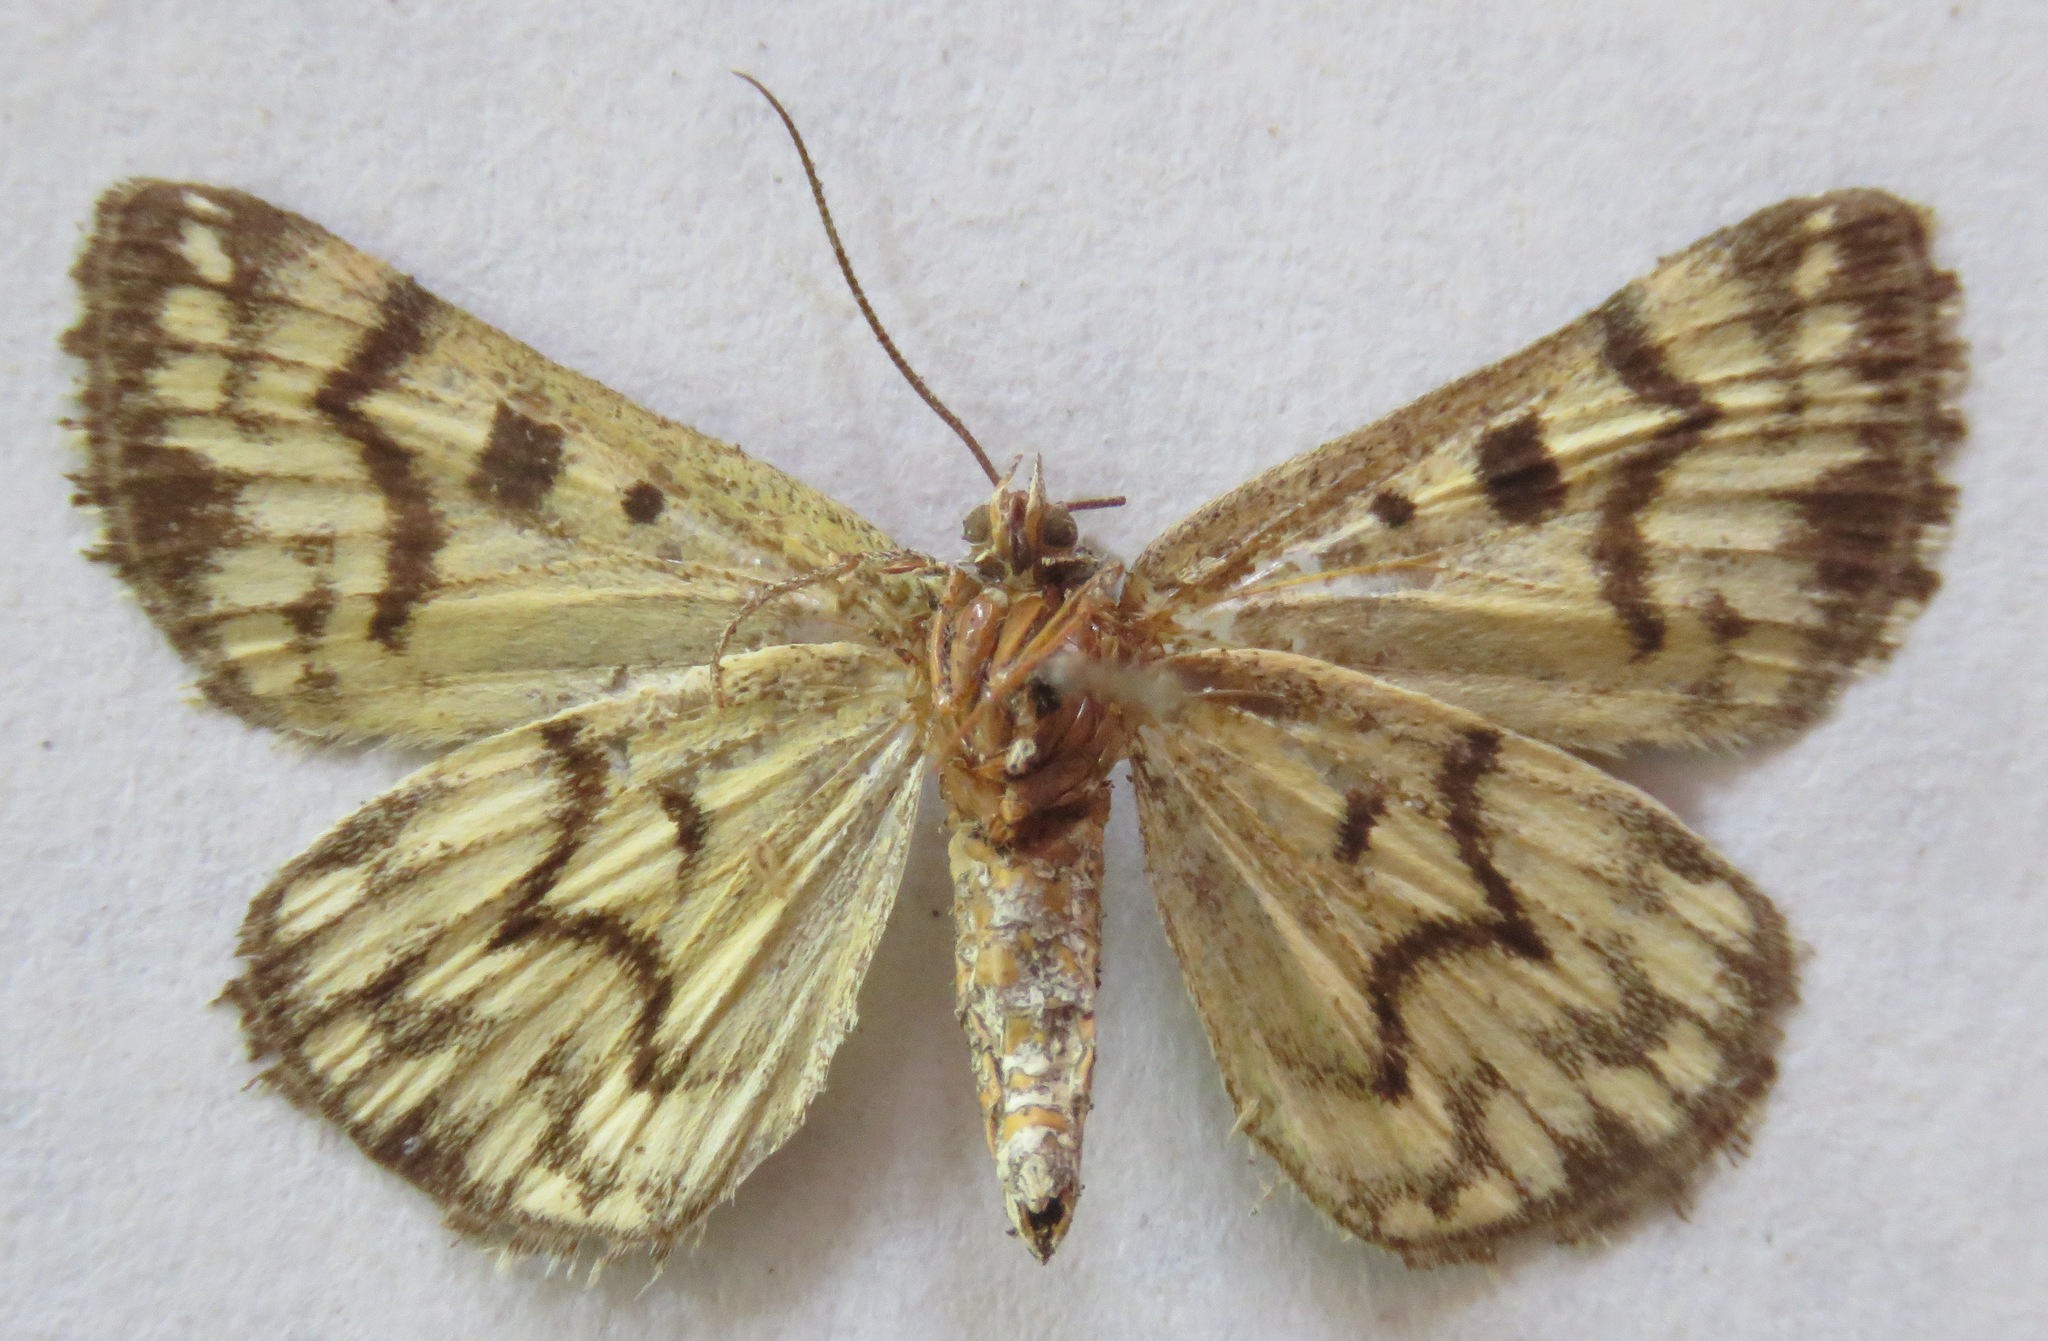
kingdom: Animalia
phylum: Arthropoda
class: Insecta
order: Lepidoptera
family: Erebidae
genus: Callistege
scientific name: Callistege mi
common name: Mother shipton
